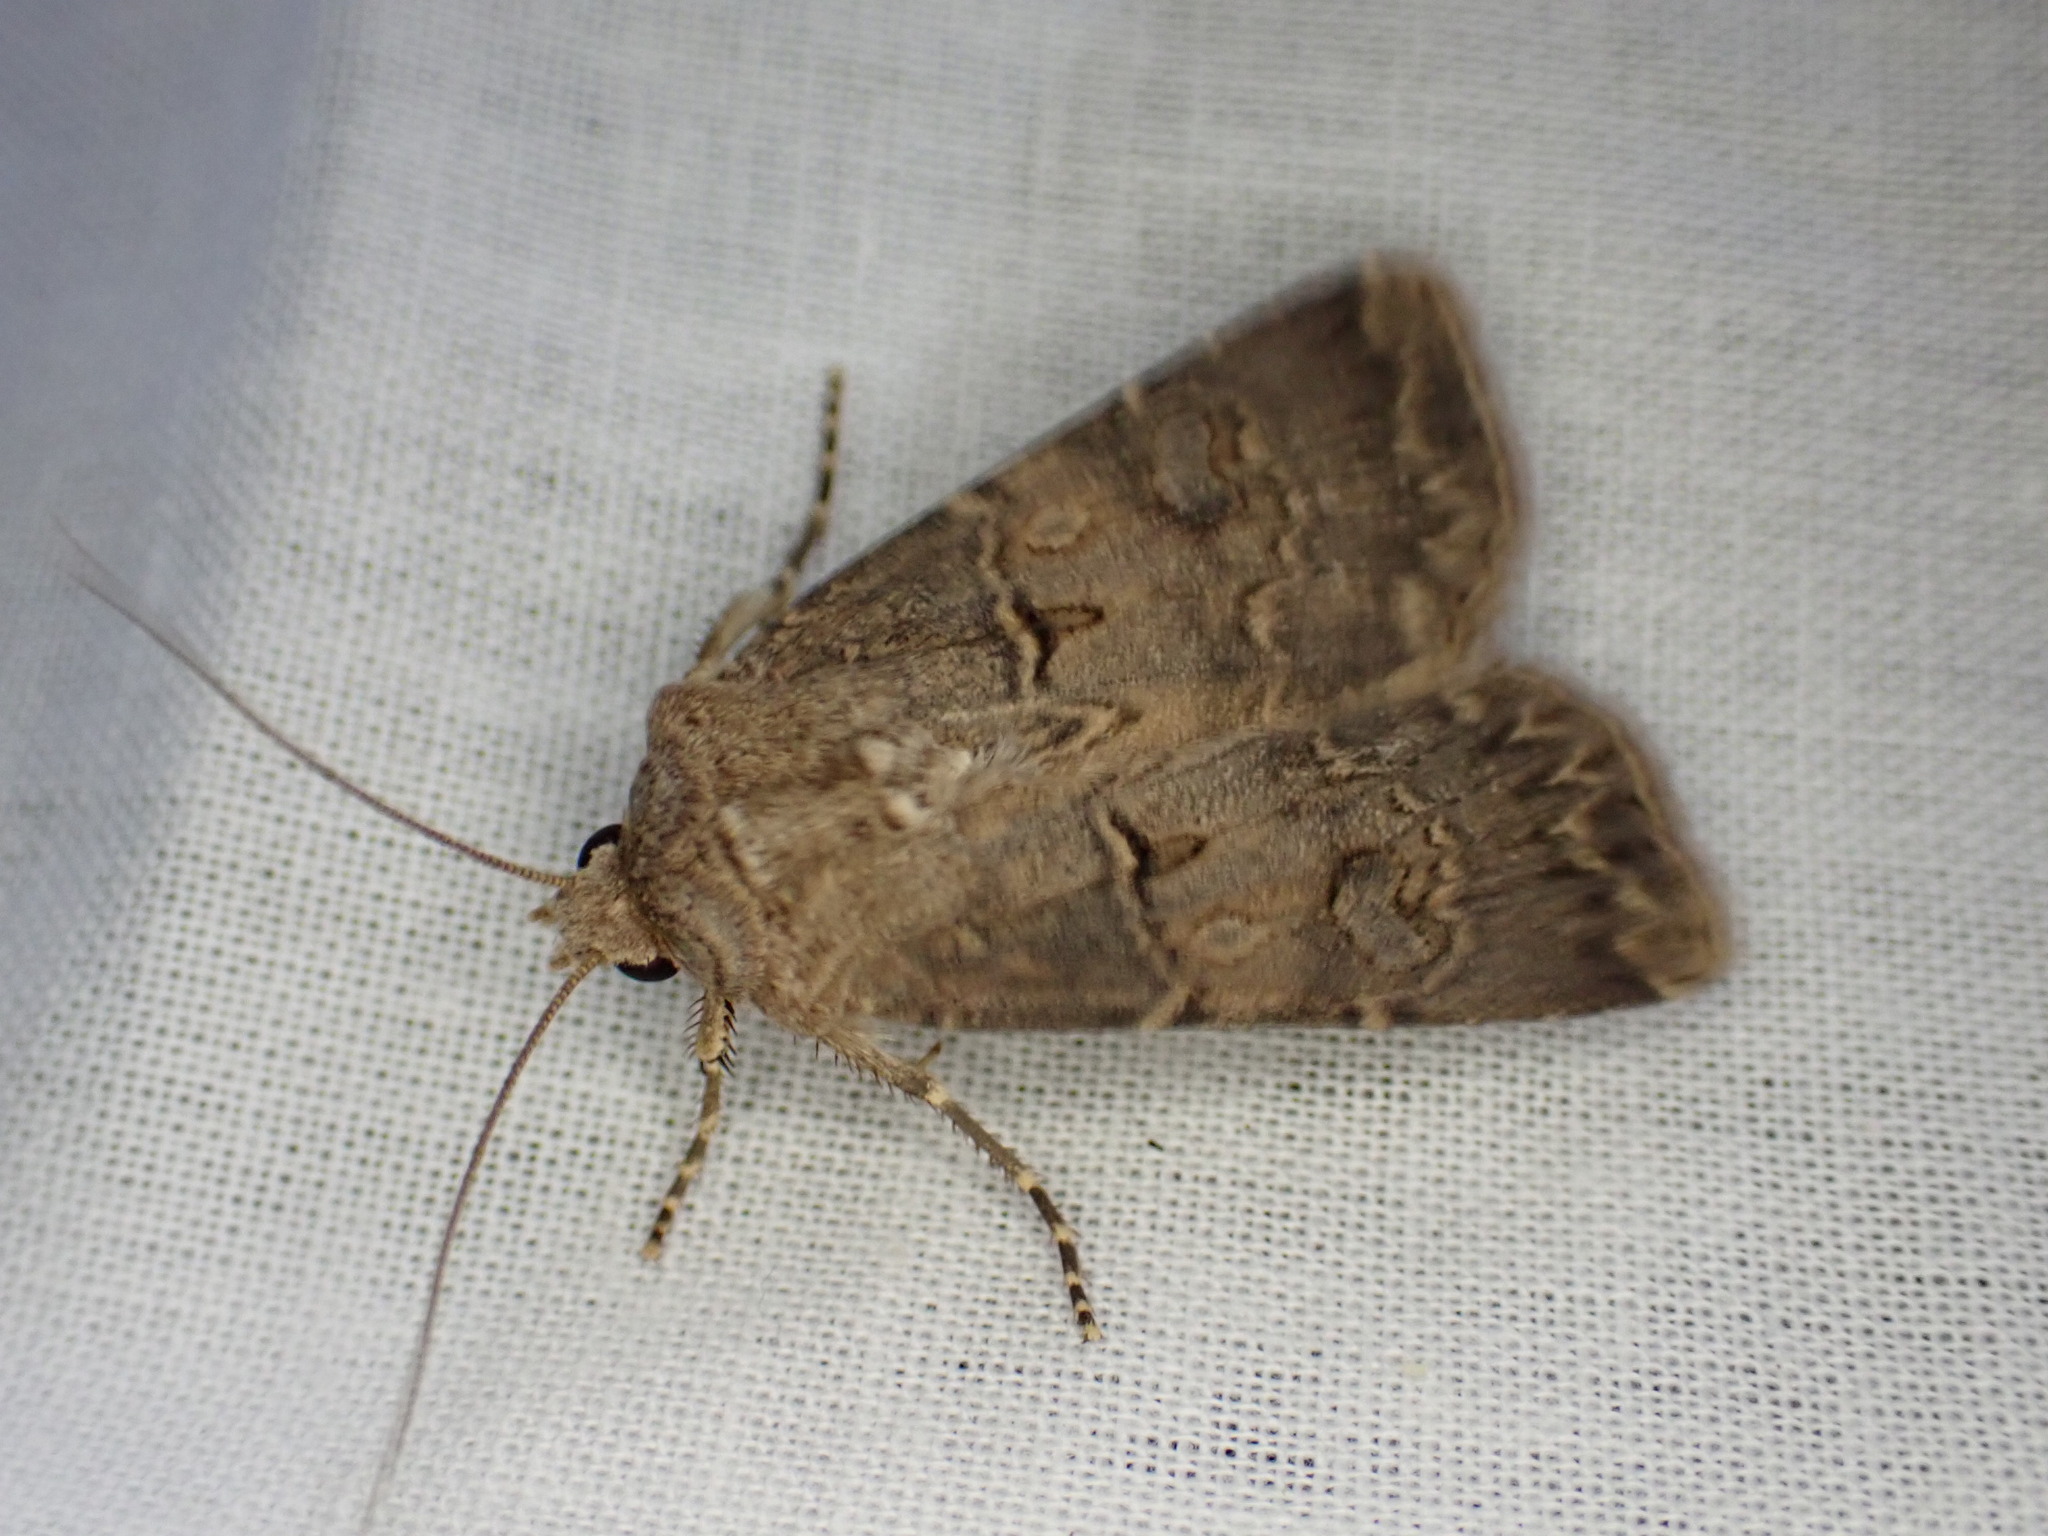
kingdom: Animalia
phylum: Arthropoda
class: Insecta
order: Lepidoptera
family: Noctuidae
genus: Agrotis
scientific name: Agrotis bigramma
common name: Great dart
